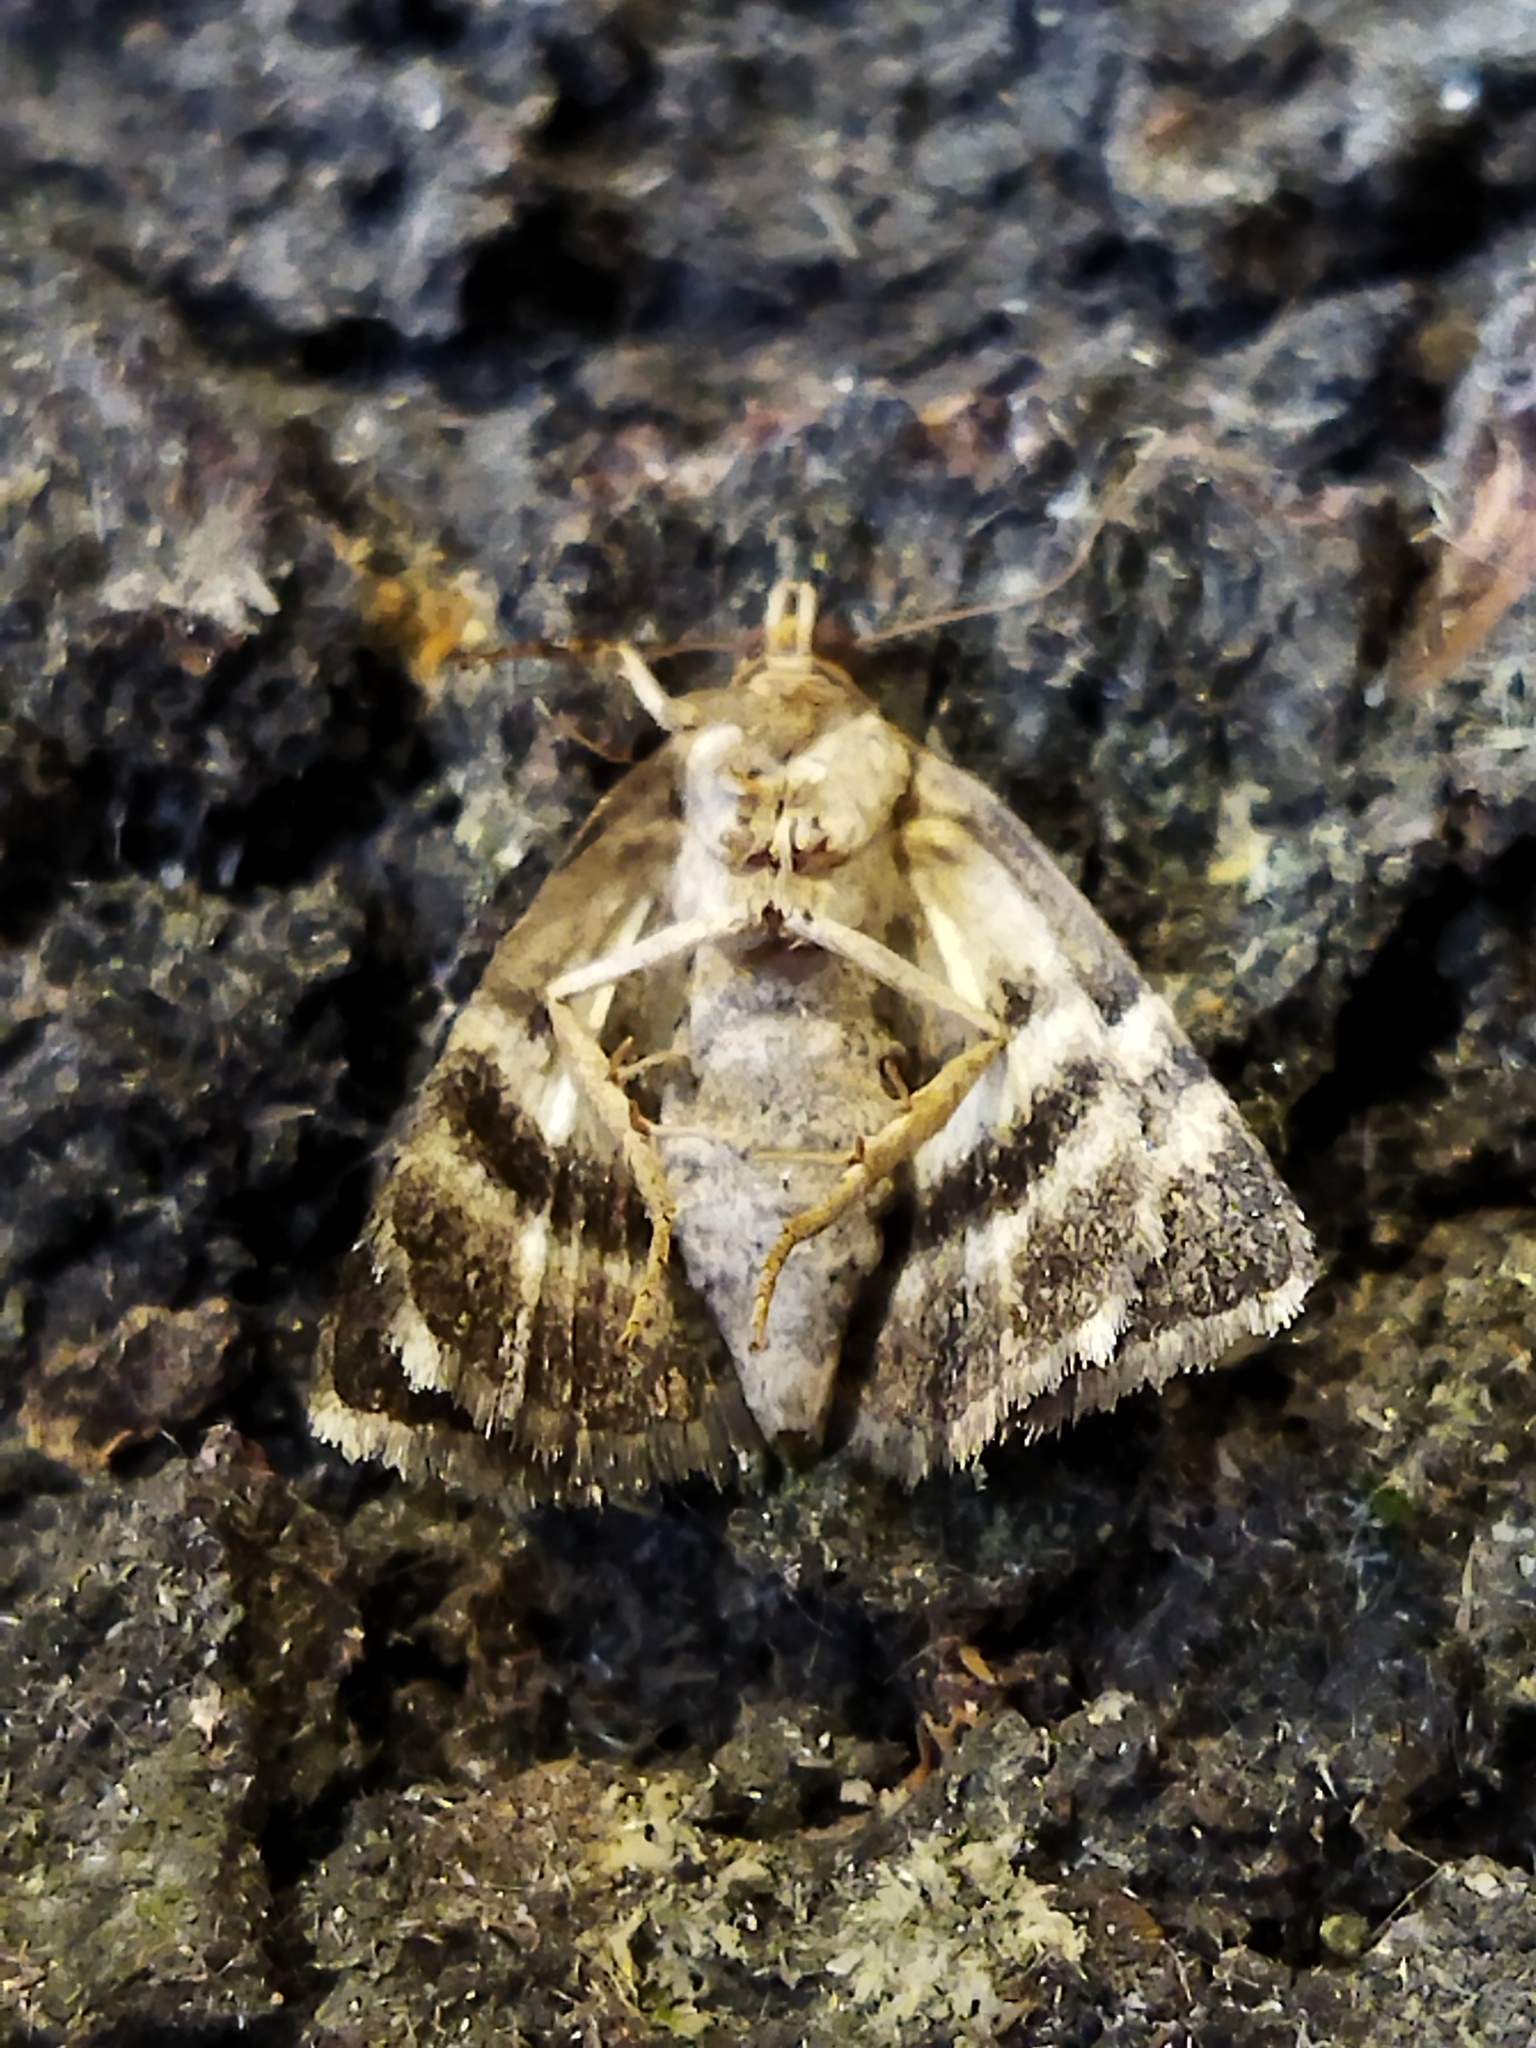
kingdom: Animalia
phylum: Arthropoda
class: Insecta
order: Lepidoptera
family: Noctuidae
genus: Odice
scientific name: Odice suava
